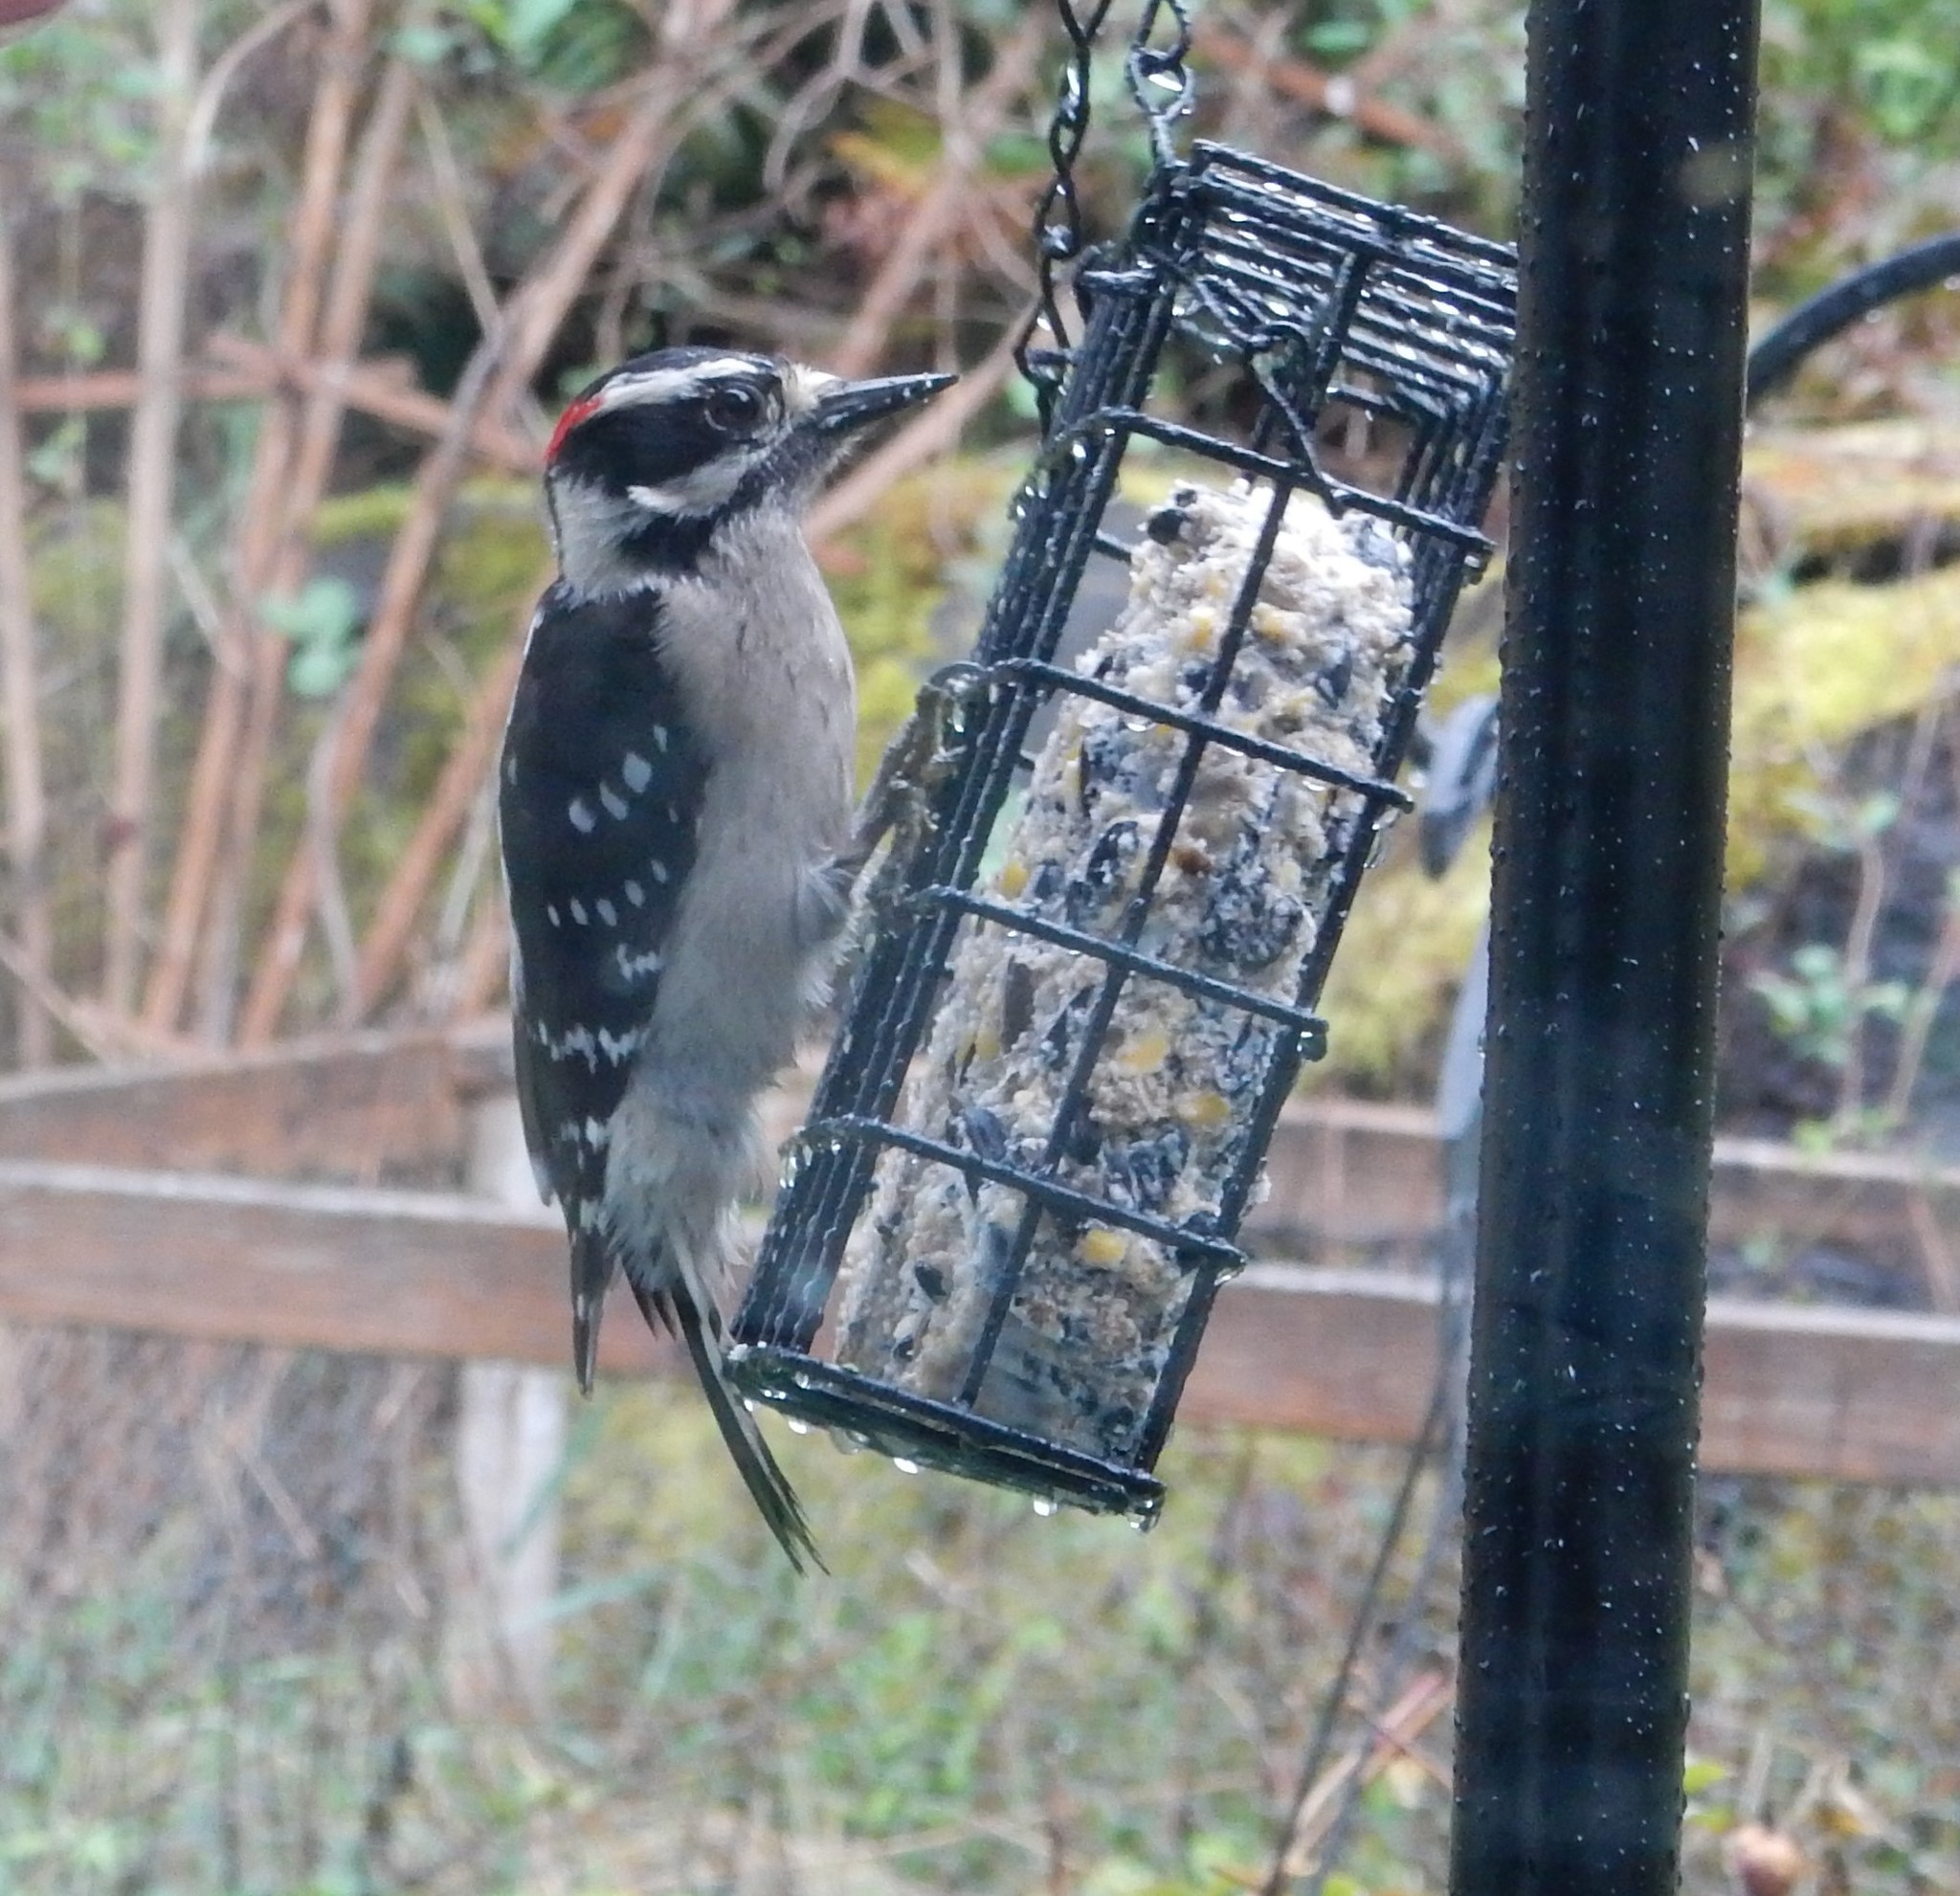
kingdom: Animalia
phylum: Chordata
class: Aves
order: Piciformes
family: Picidae
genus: Dryobates
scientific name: Dryobates pubescens
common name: Downy woodpecker
